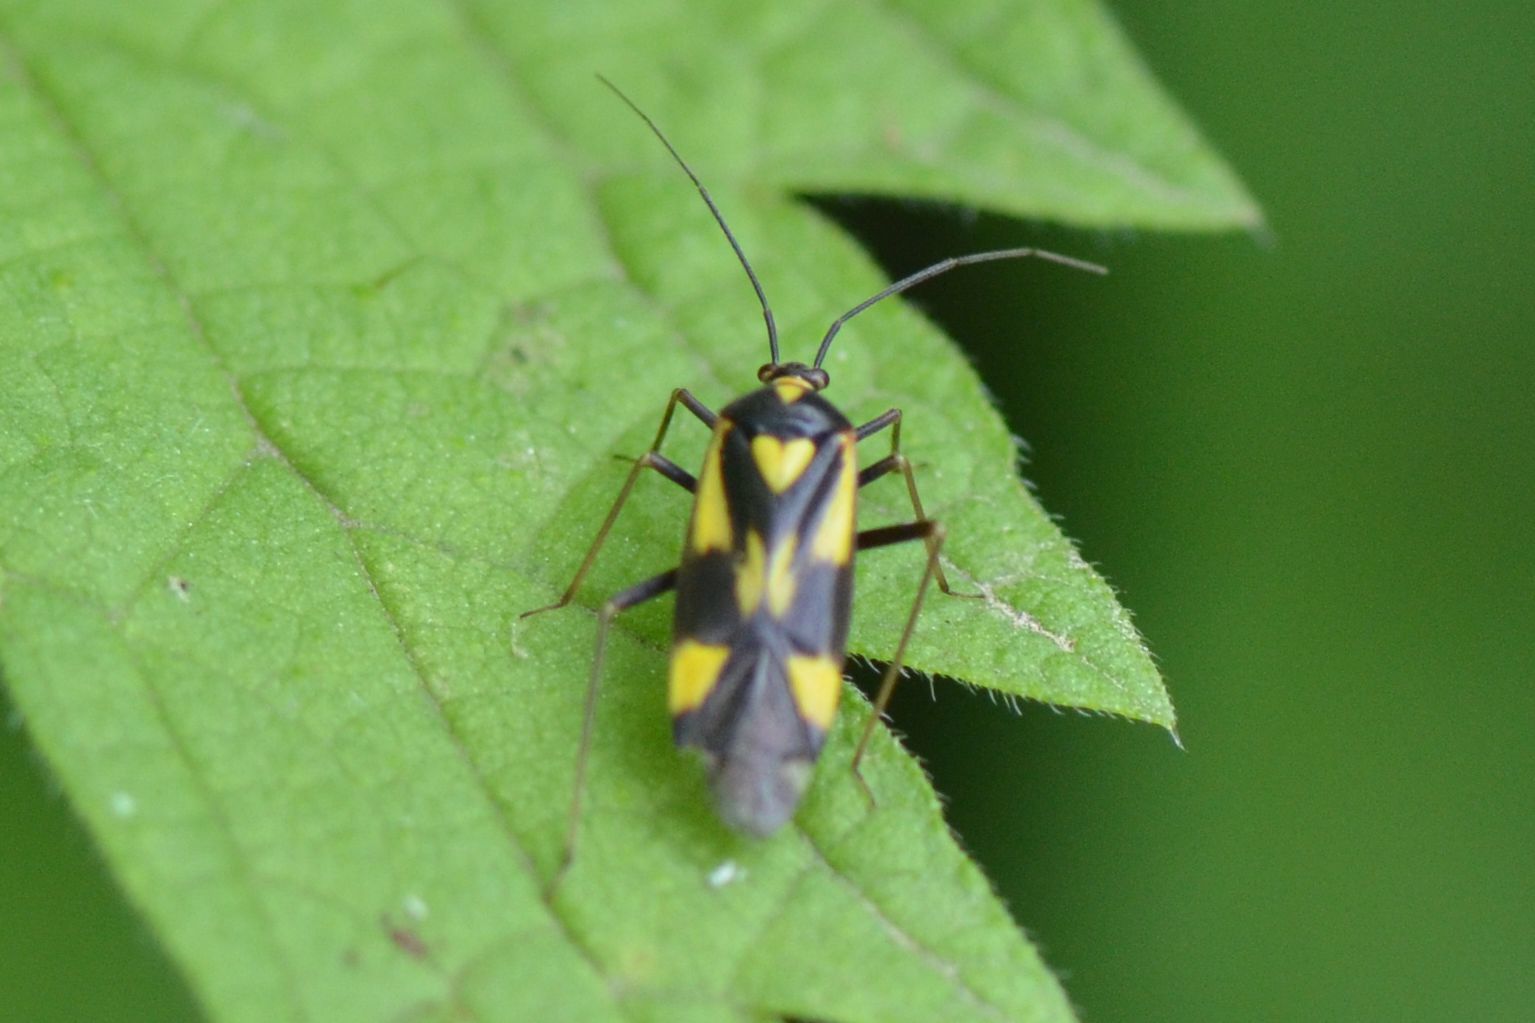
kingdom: Animalia
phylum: Arthropoda
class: Insecta
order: Hemiptera
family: Miridae
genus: Grypocoris
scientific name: Grypocoris sexguttatus
